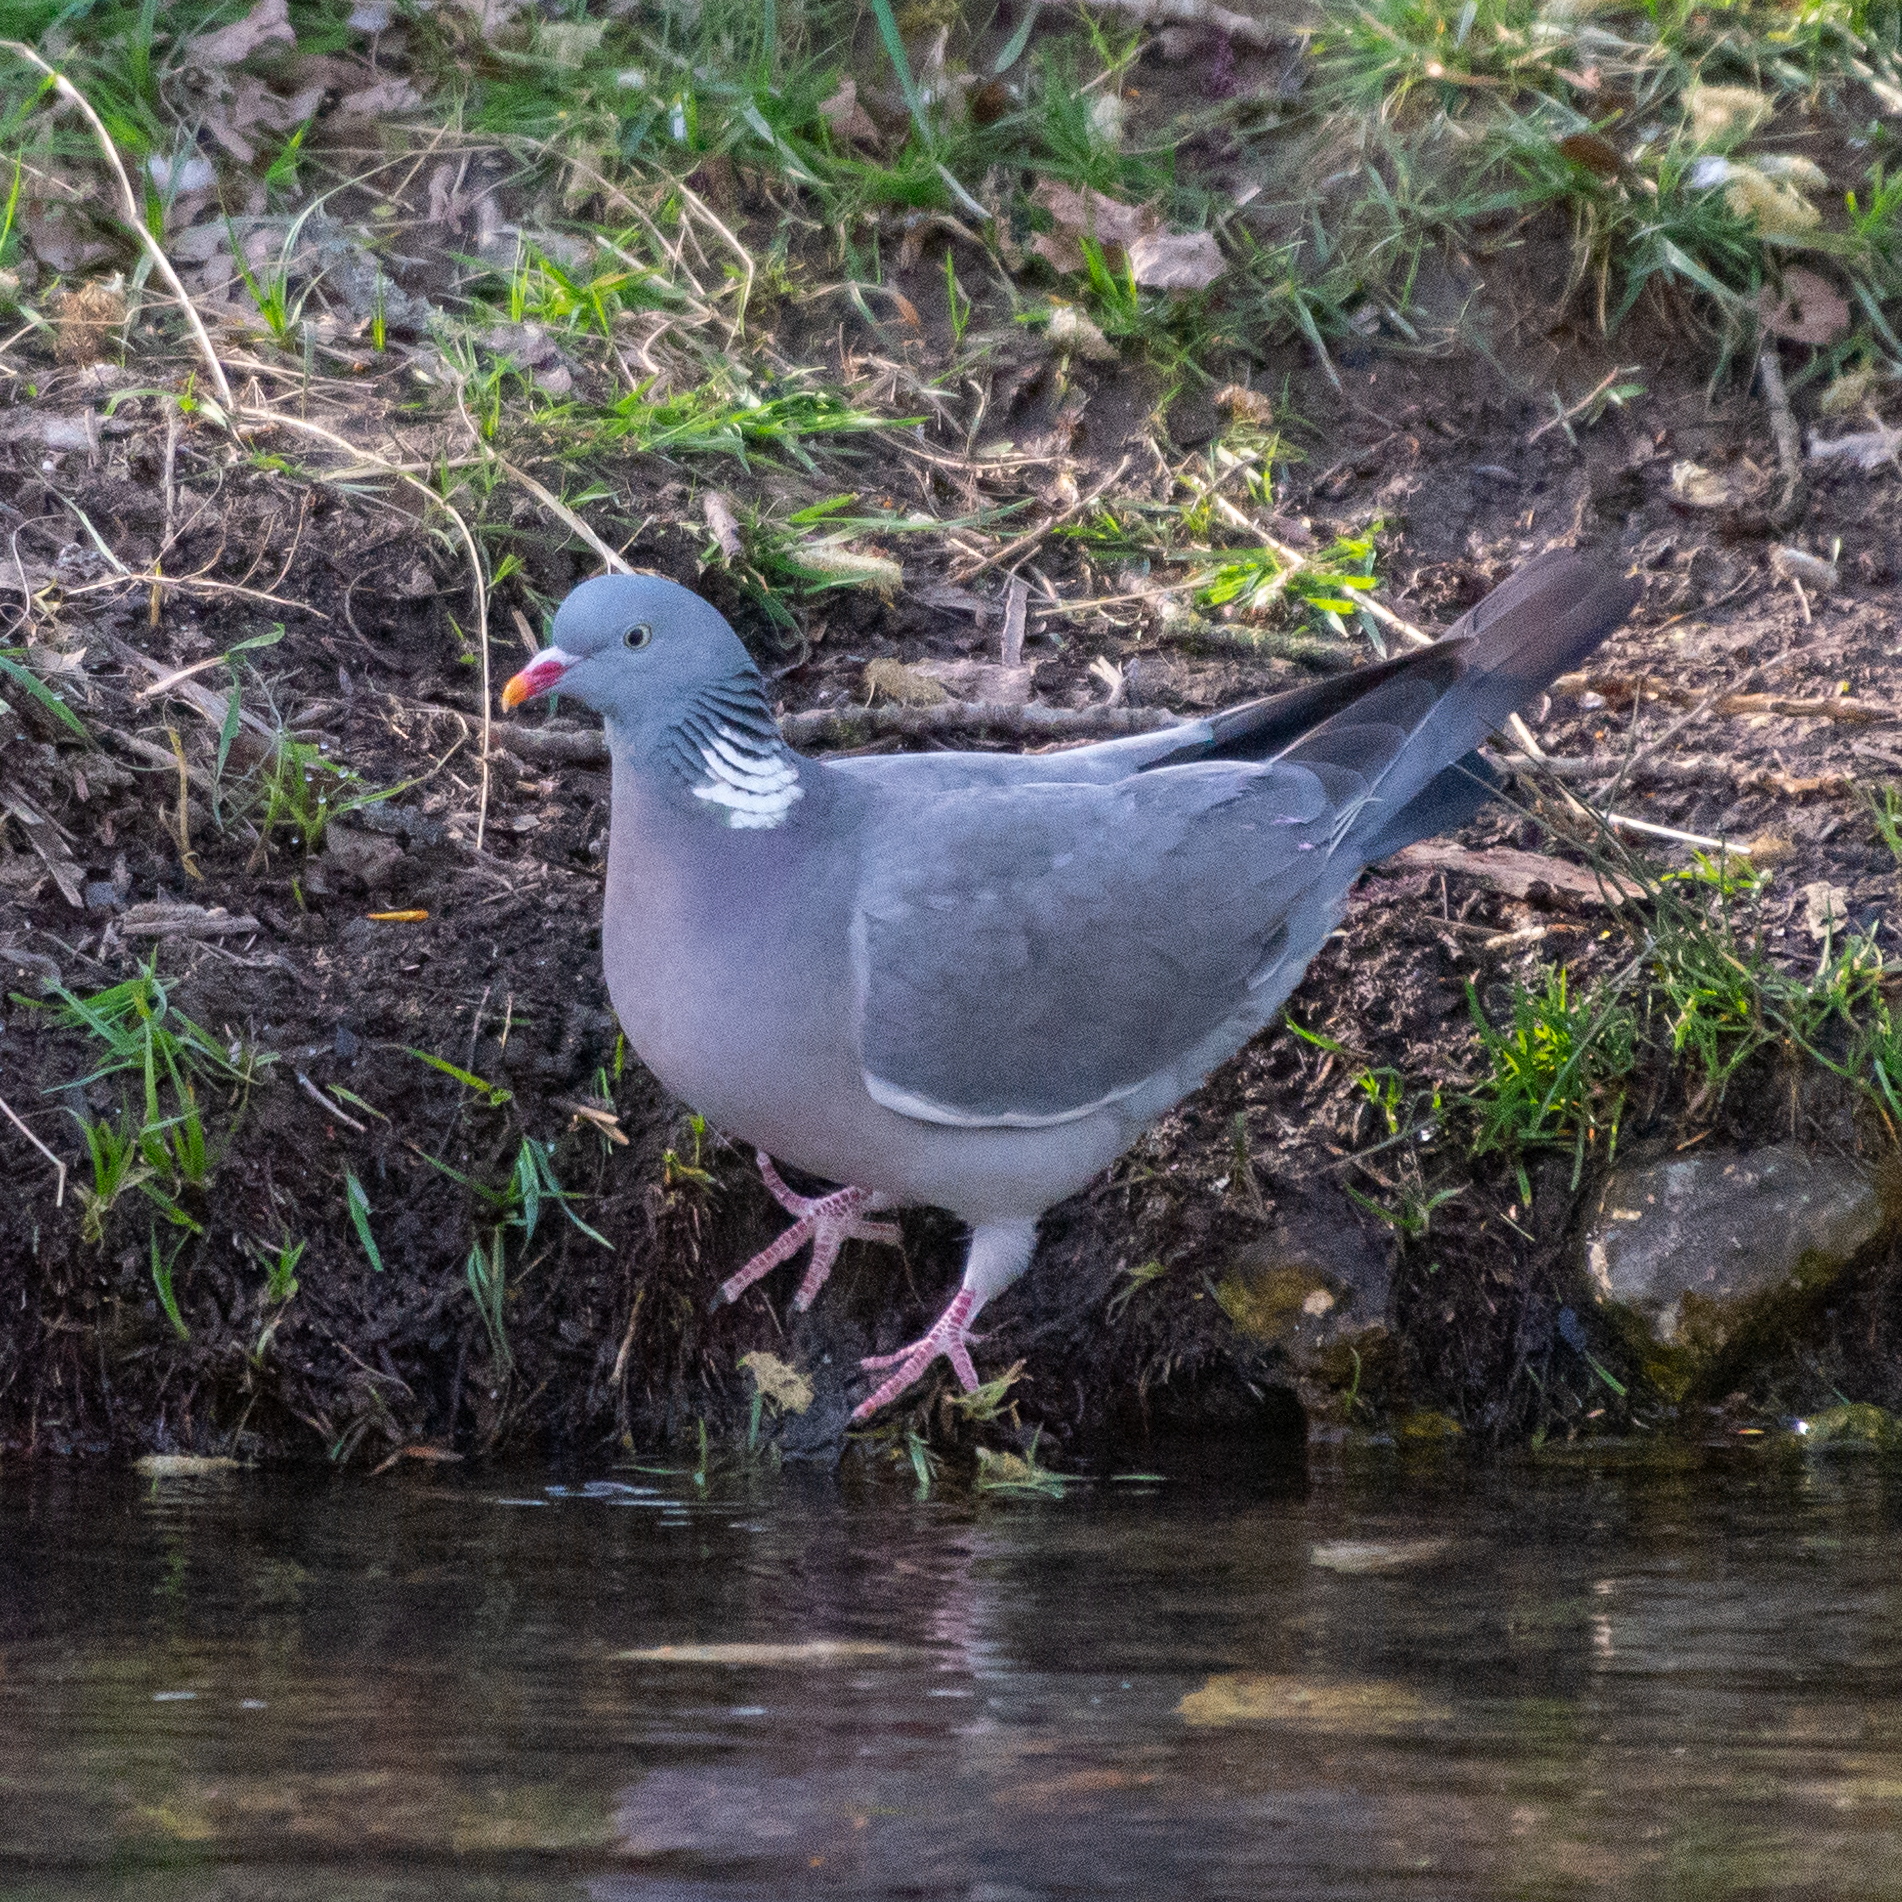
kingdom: Animalia
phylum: Chordata
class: Aves
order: Columbiformes
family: Columbidae
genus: Columba
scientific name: Columba palumbus
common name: Common wood pigeon
